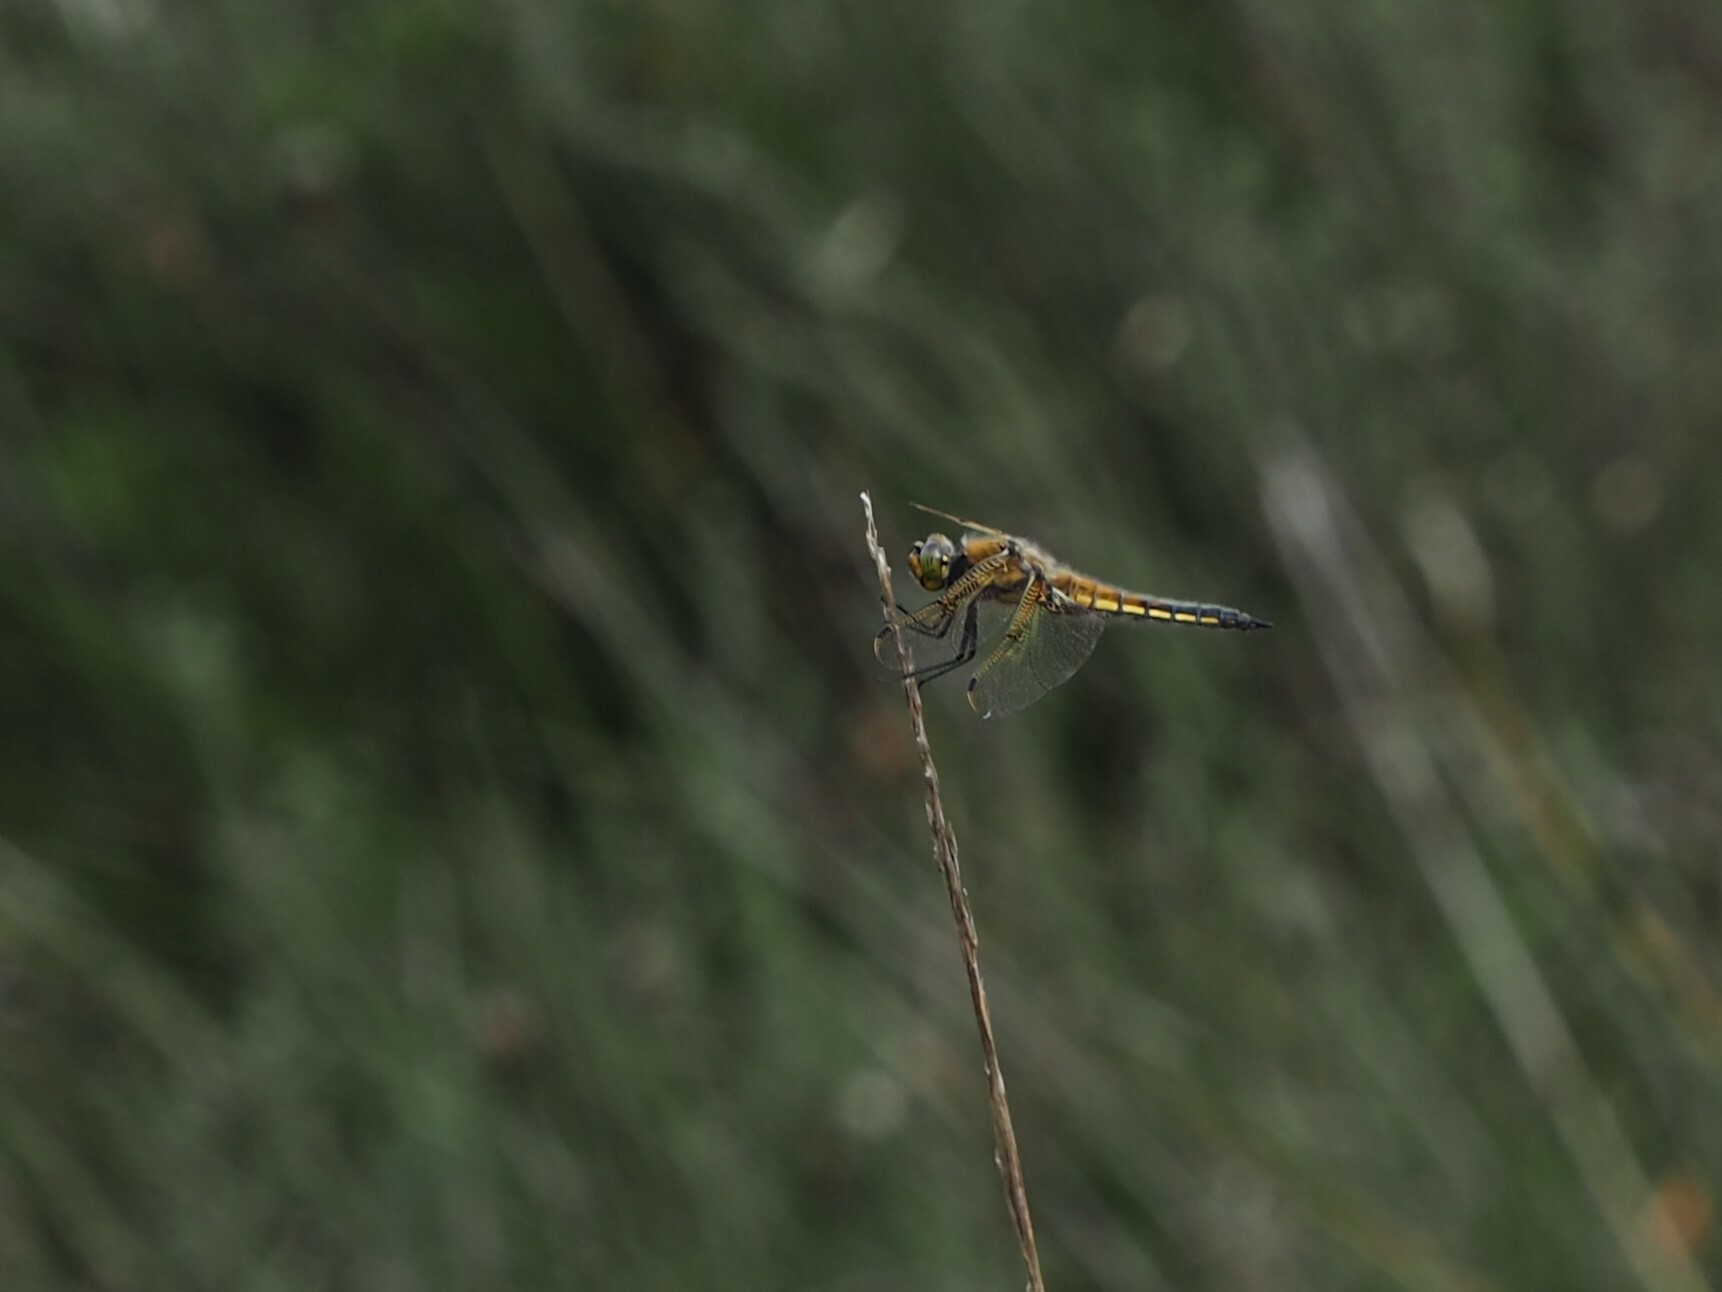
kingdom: Animalia
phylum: Arthropoda
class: Insecta
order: Odonata
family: Libellulidae
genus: Libellula
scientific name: Libellula quadrimaculata
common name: Four-spotted chaser
